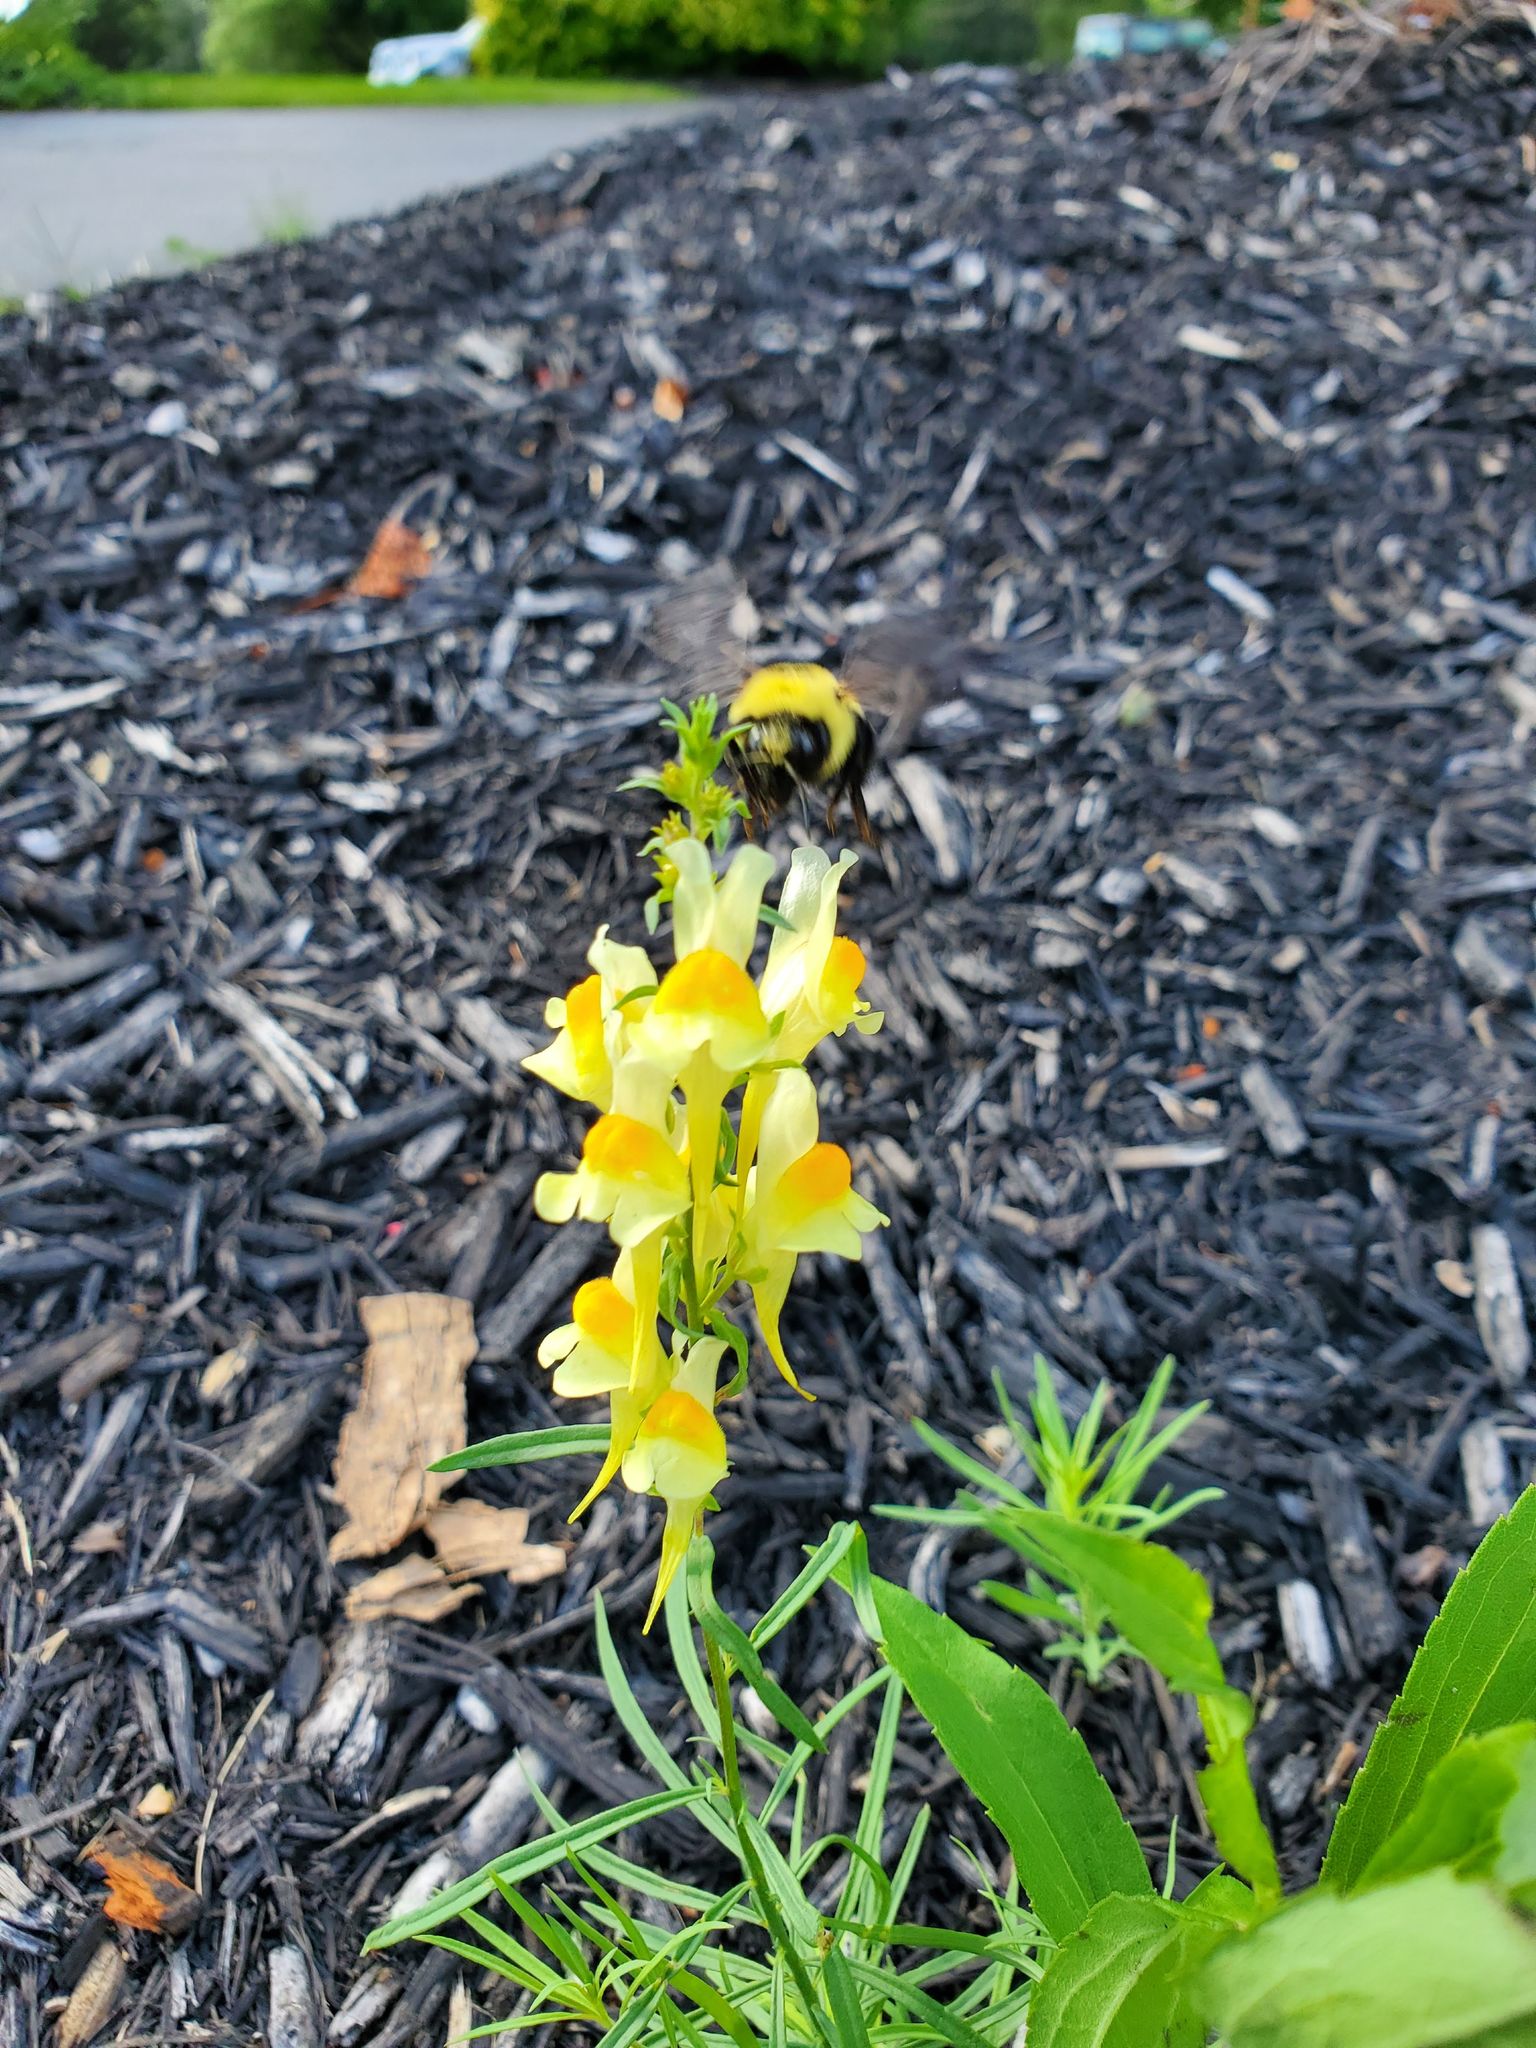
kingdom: Plantae
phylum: Tracheophyta
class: Magnoliopsida
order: Lamiales
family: Plantaginaceae
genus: Linaria
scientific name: Linaria vulgaris
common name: Butter and eggs
